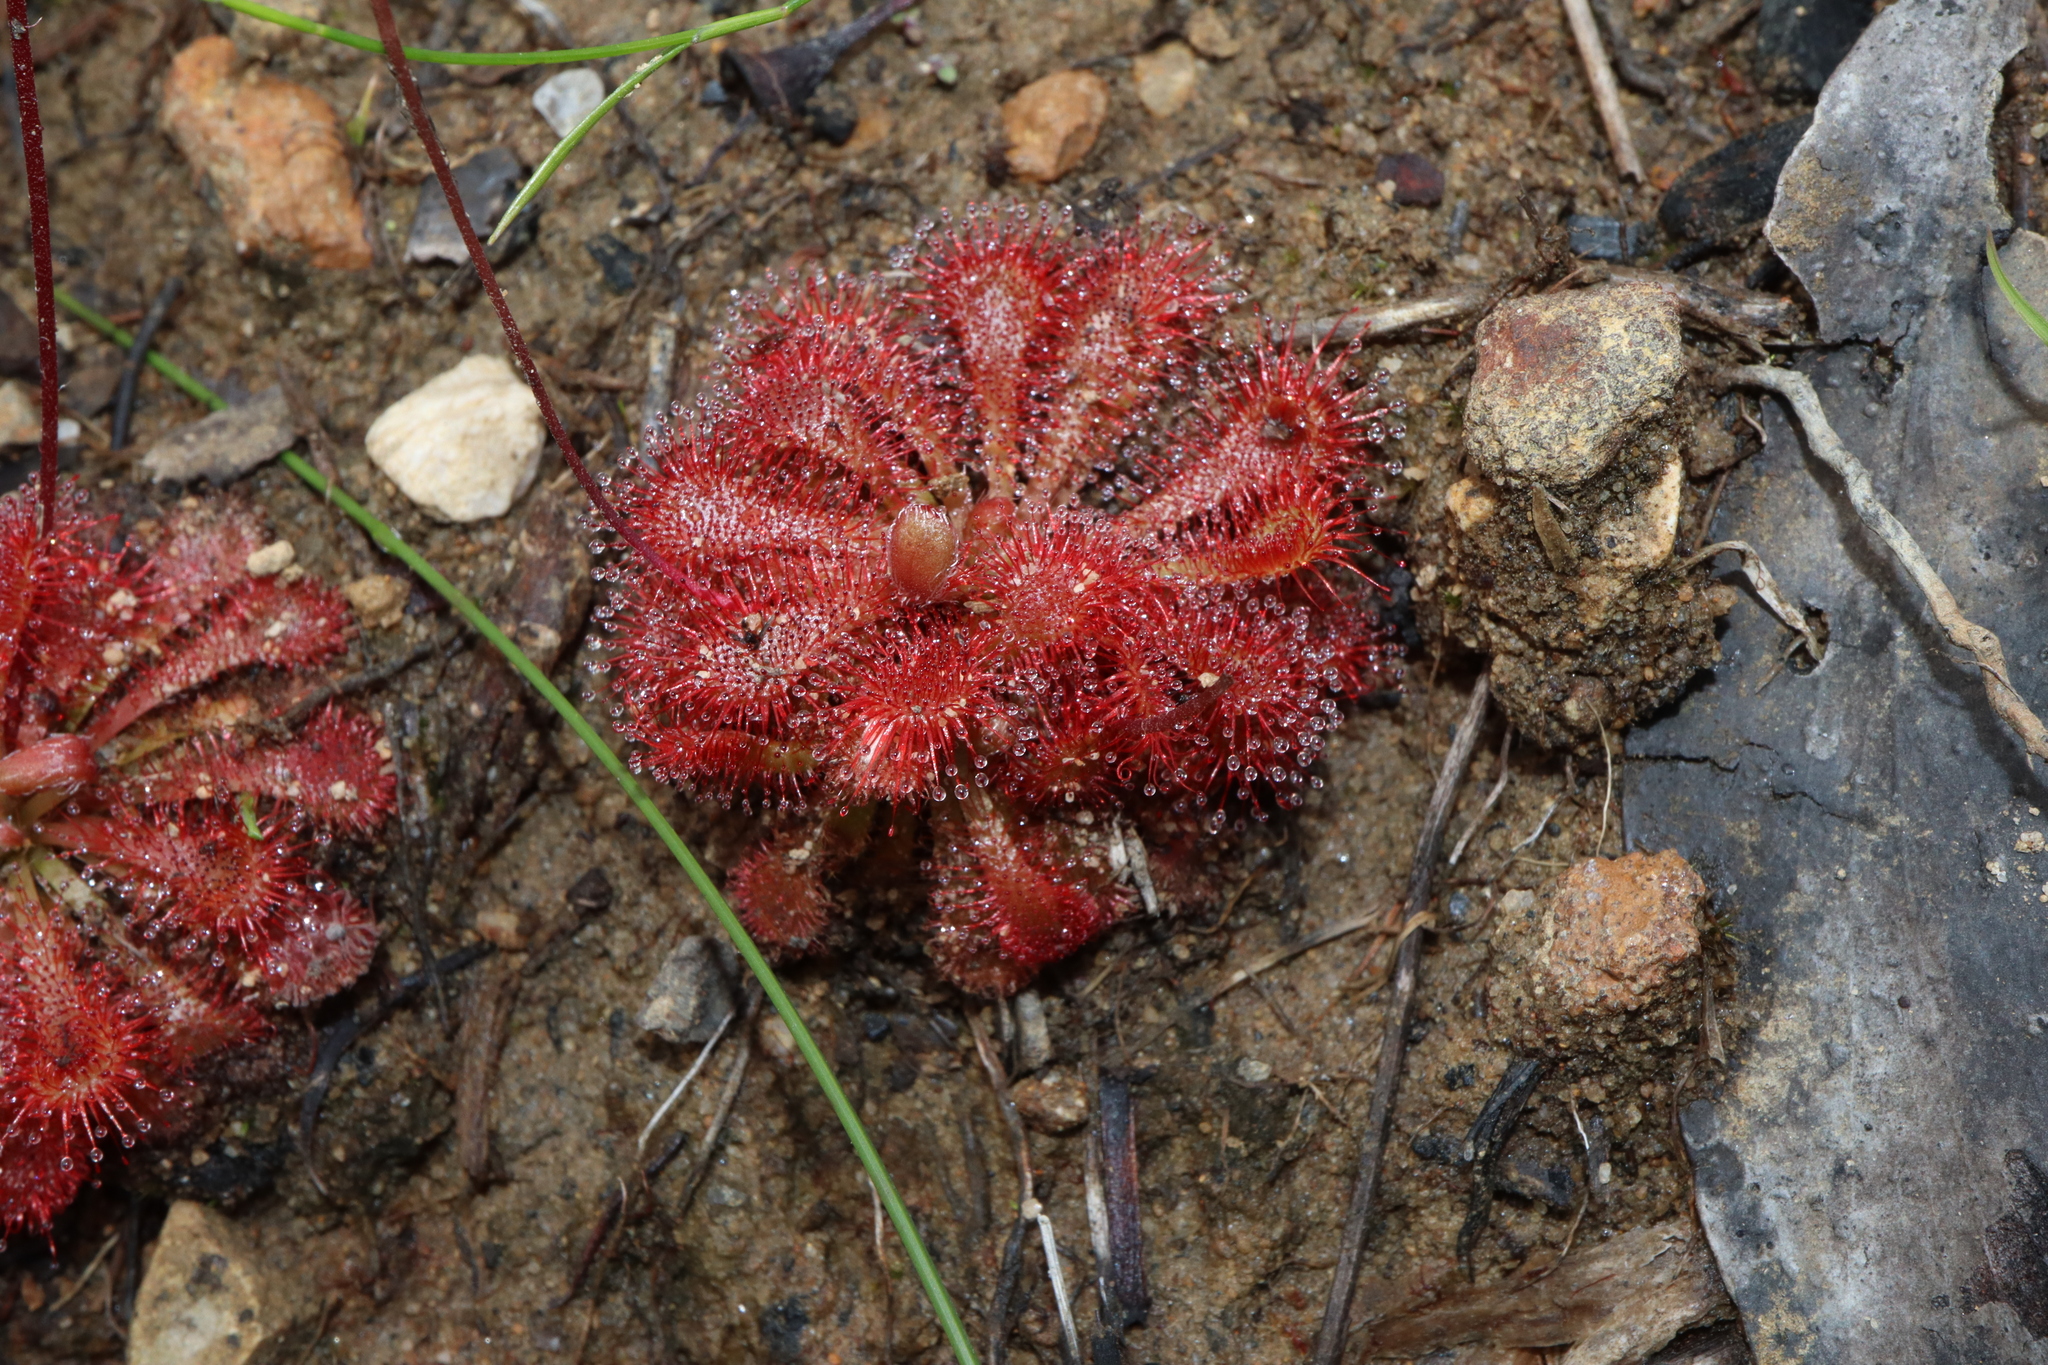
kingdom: Plantae
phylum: Tracheophyta
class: Magnoliopsida
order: Caryophyllales
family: Droseraceae
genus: Drosera
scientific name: Drosera spatulata
